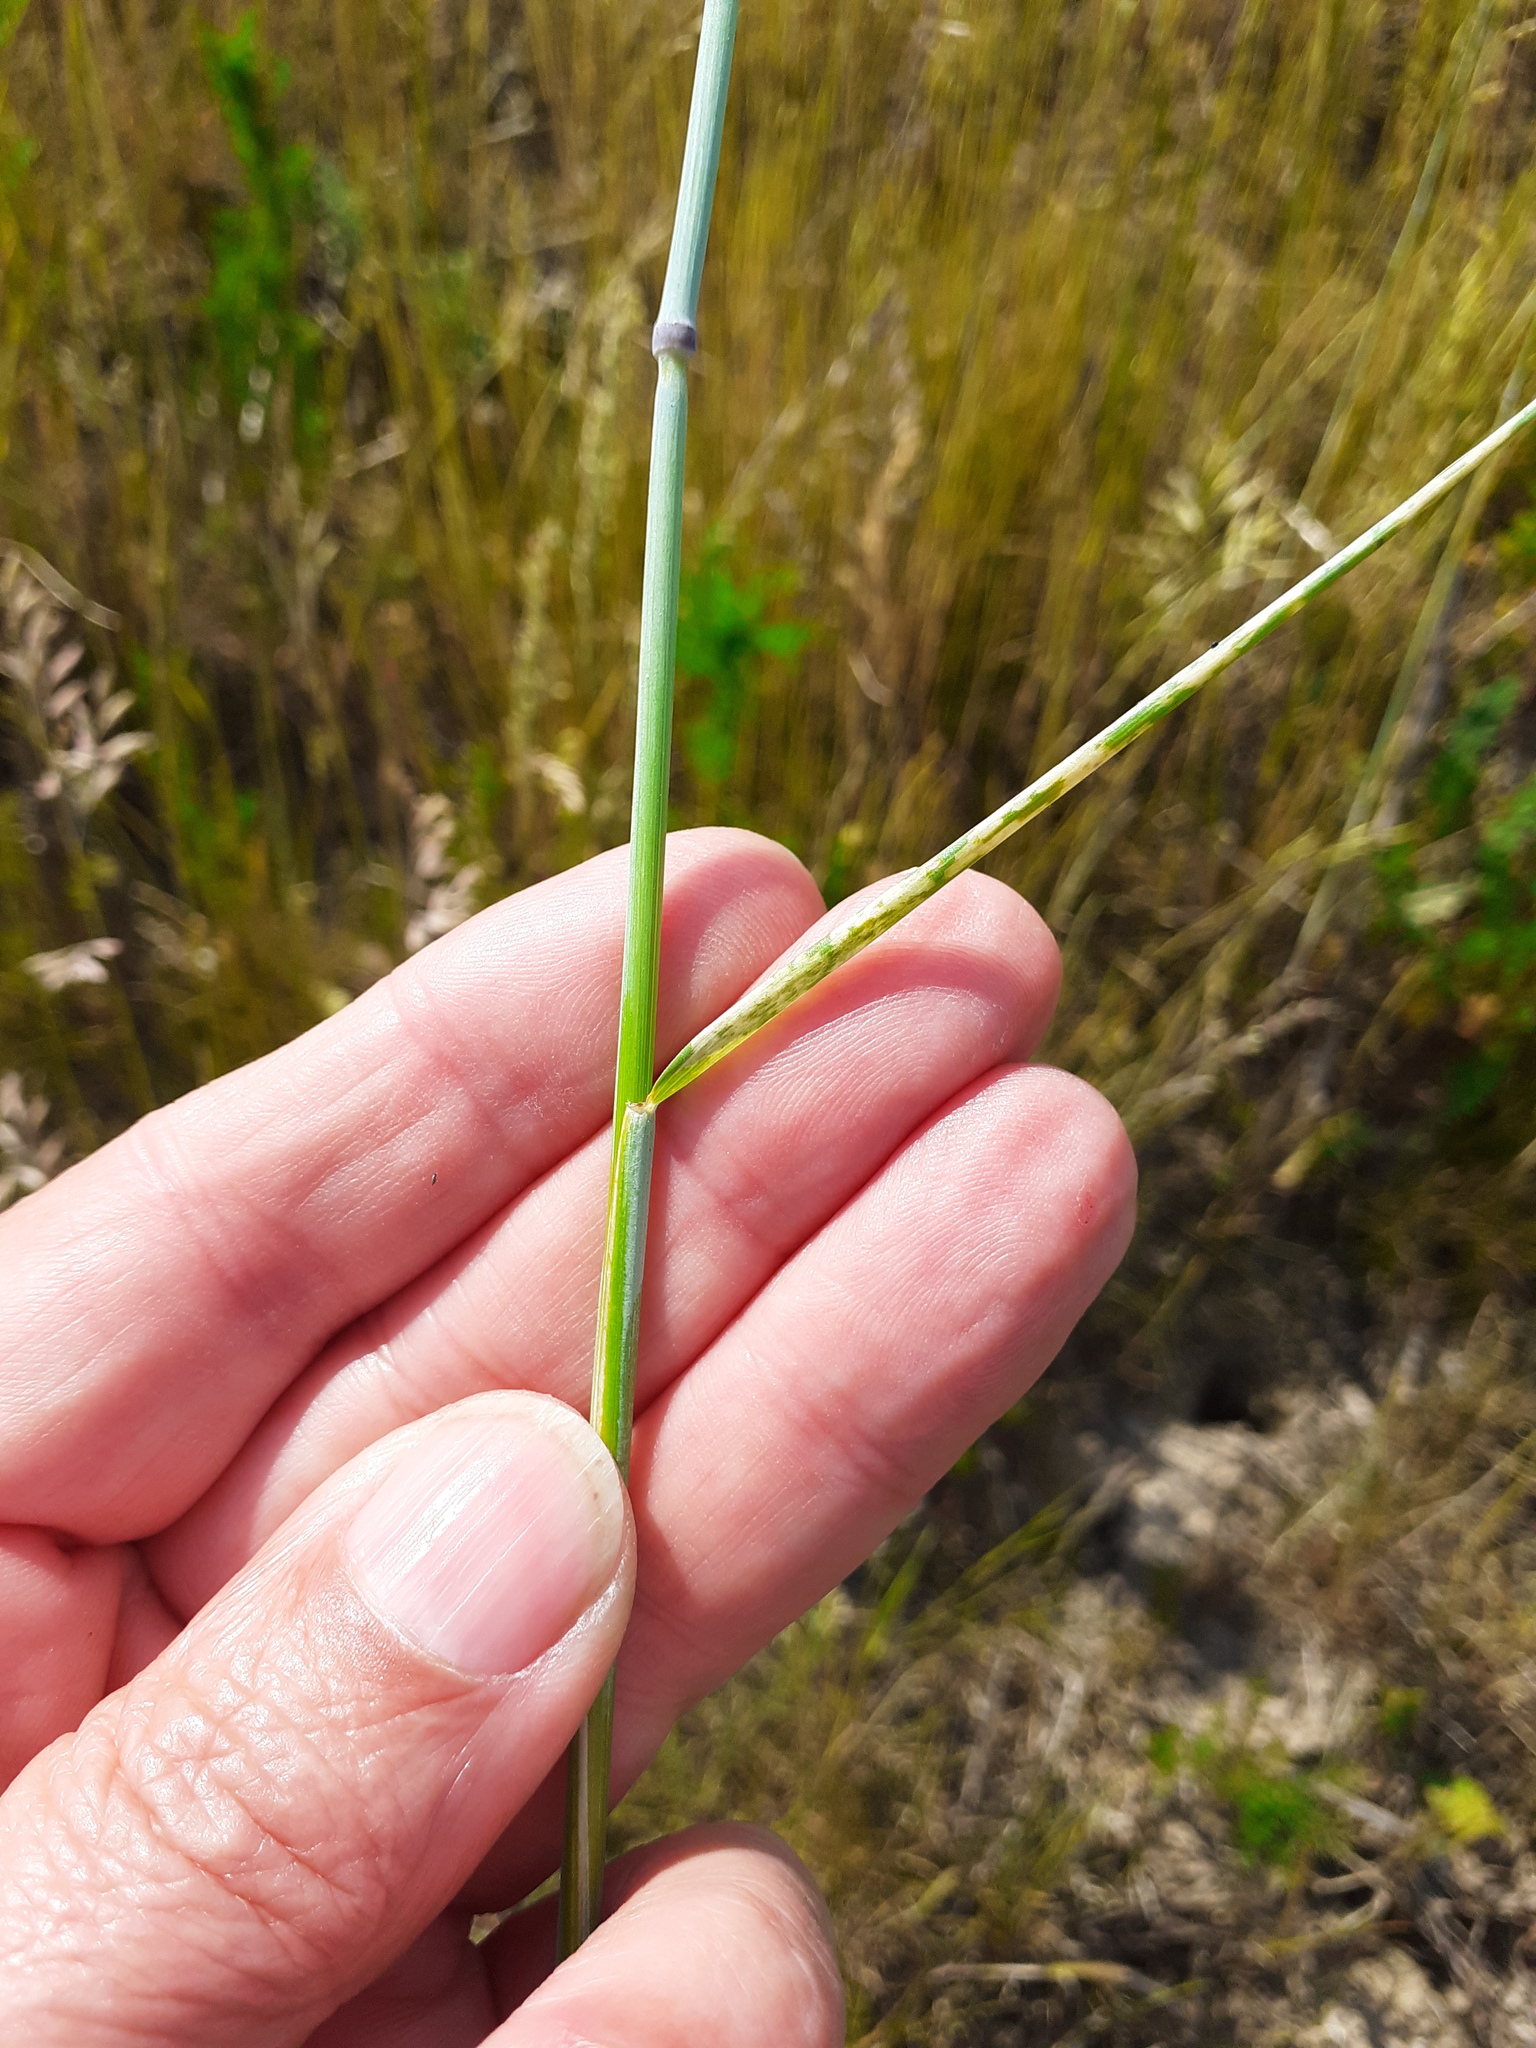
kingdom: Plantae
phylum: Tracheophyta
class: Liliopsida
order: Poales
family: Poaceae
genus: Secale
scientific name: Secale cereale
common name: Rye
